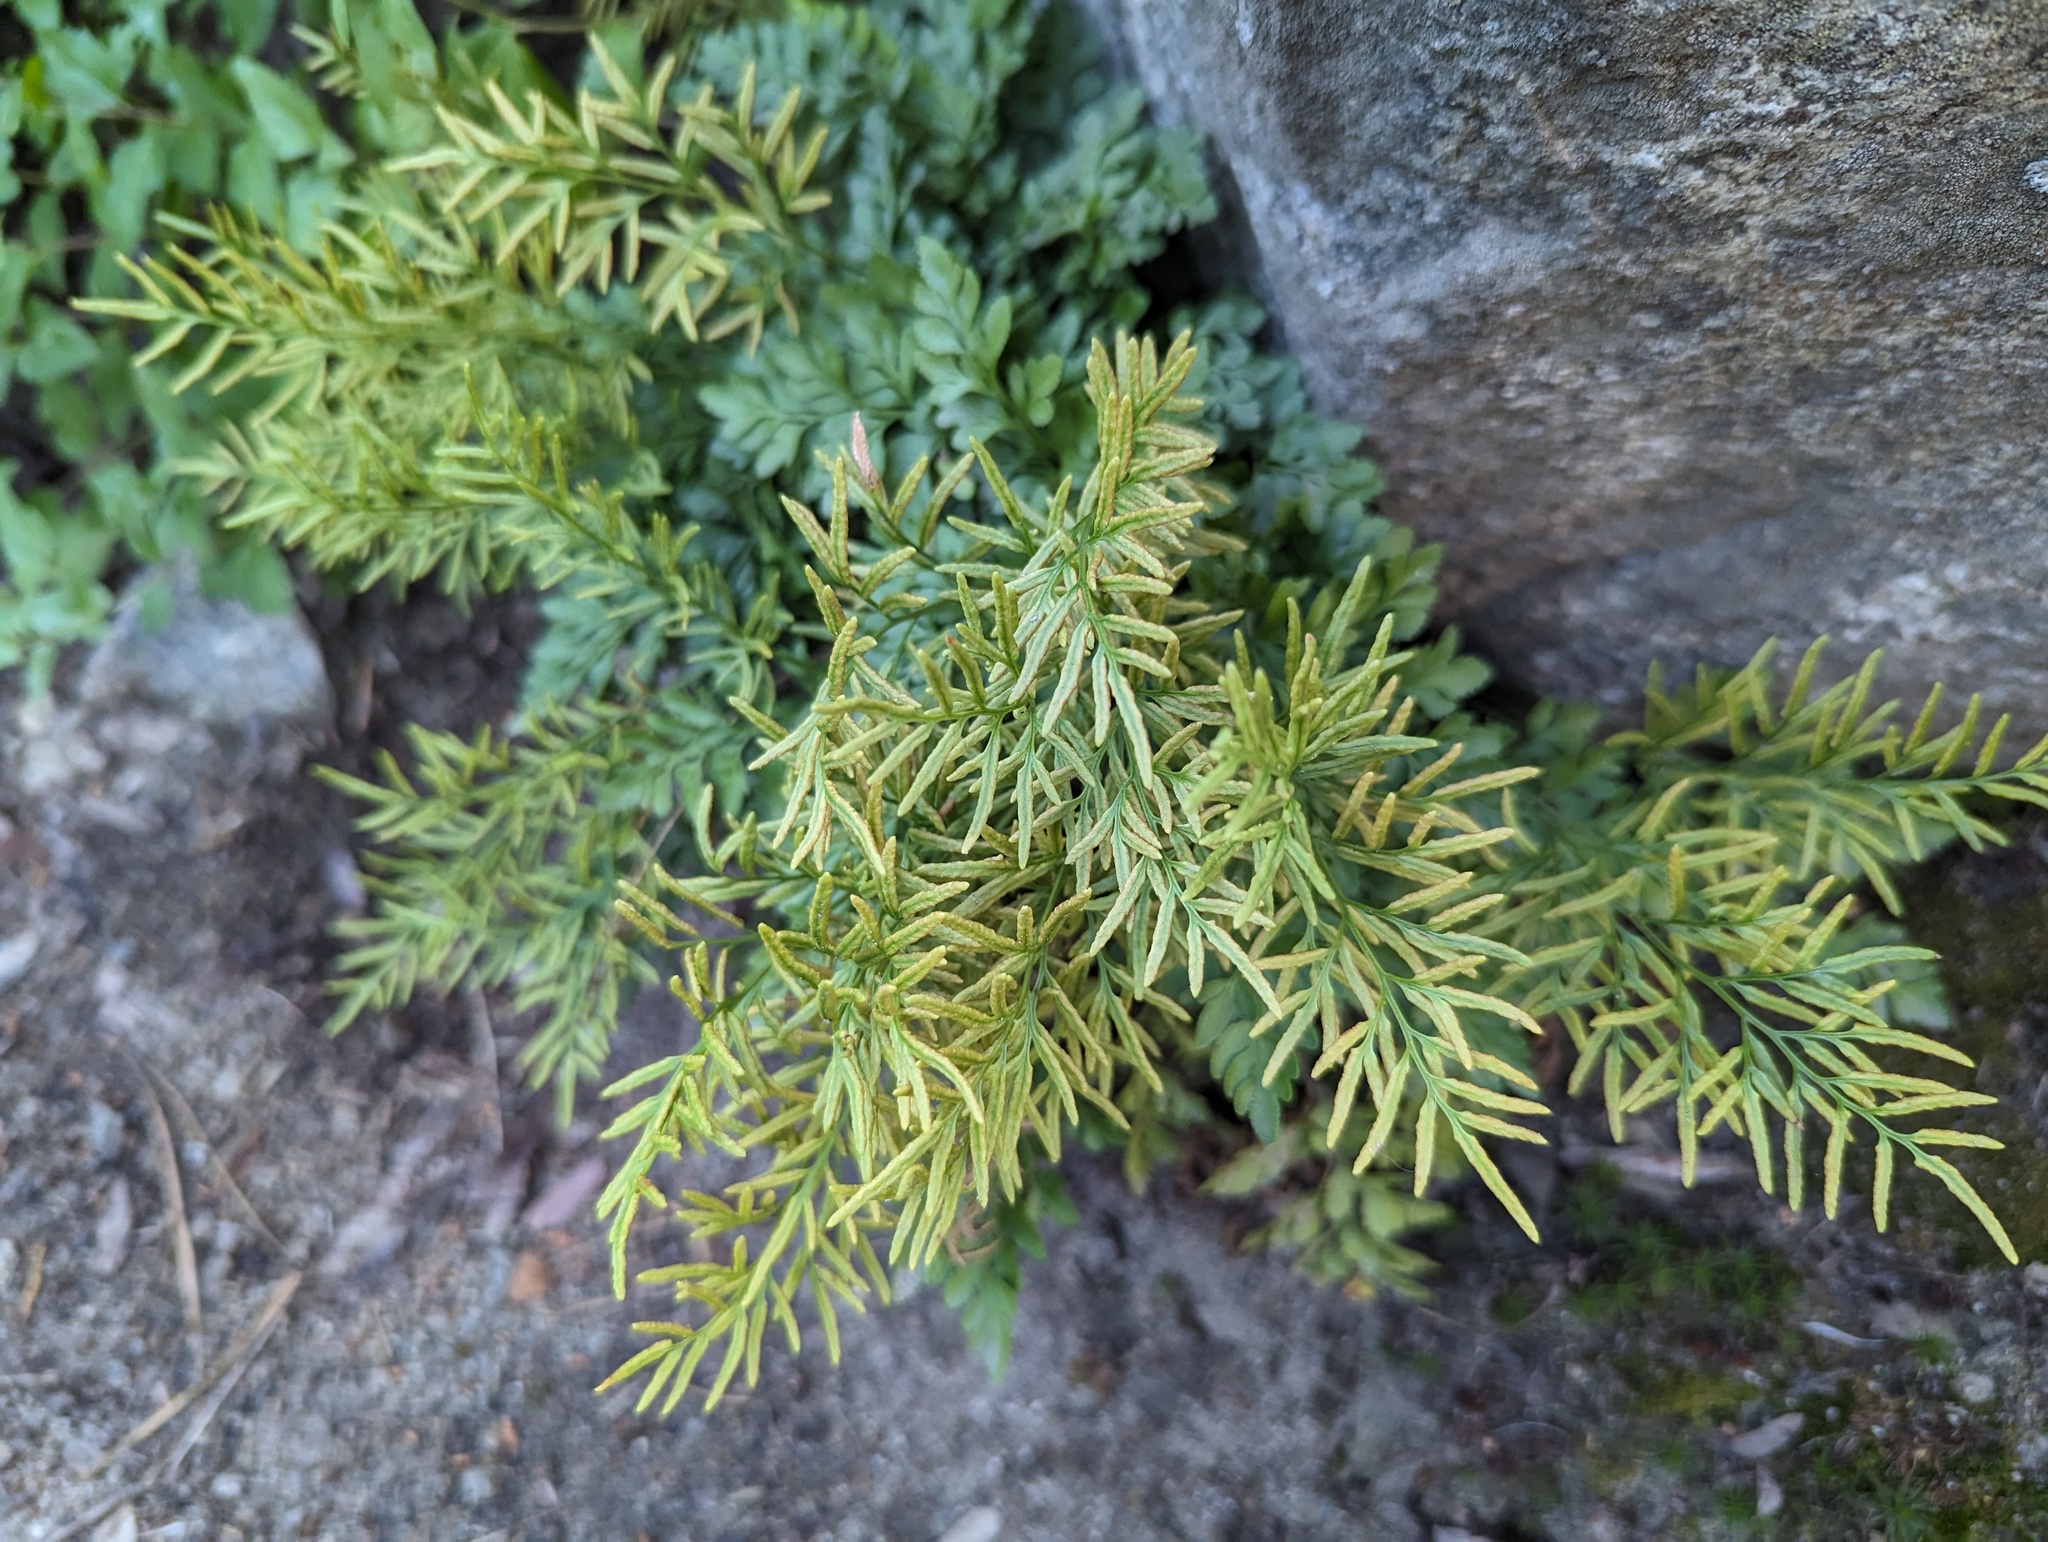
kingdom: Plantae
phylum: Tracheophyta
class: Polypodiopsida
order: Polypodiales
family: Pteridaceae
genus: Cryptogramma
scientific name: Cryptogramma acrostichoides
